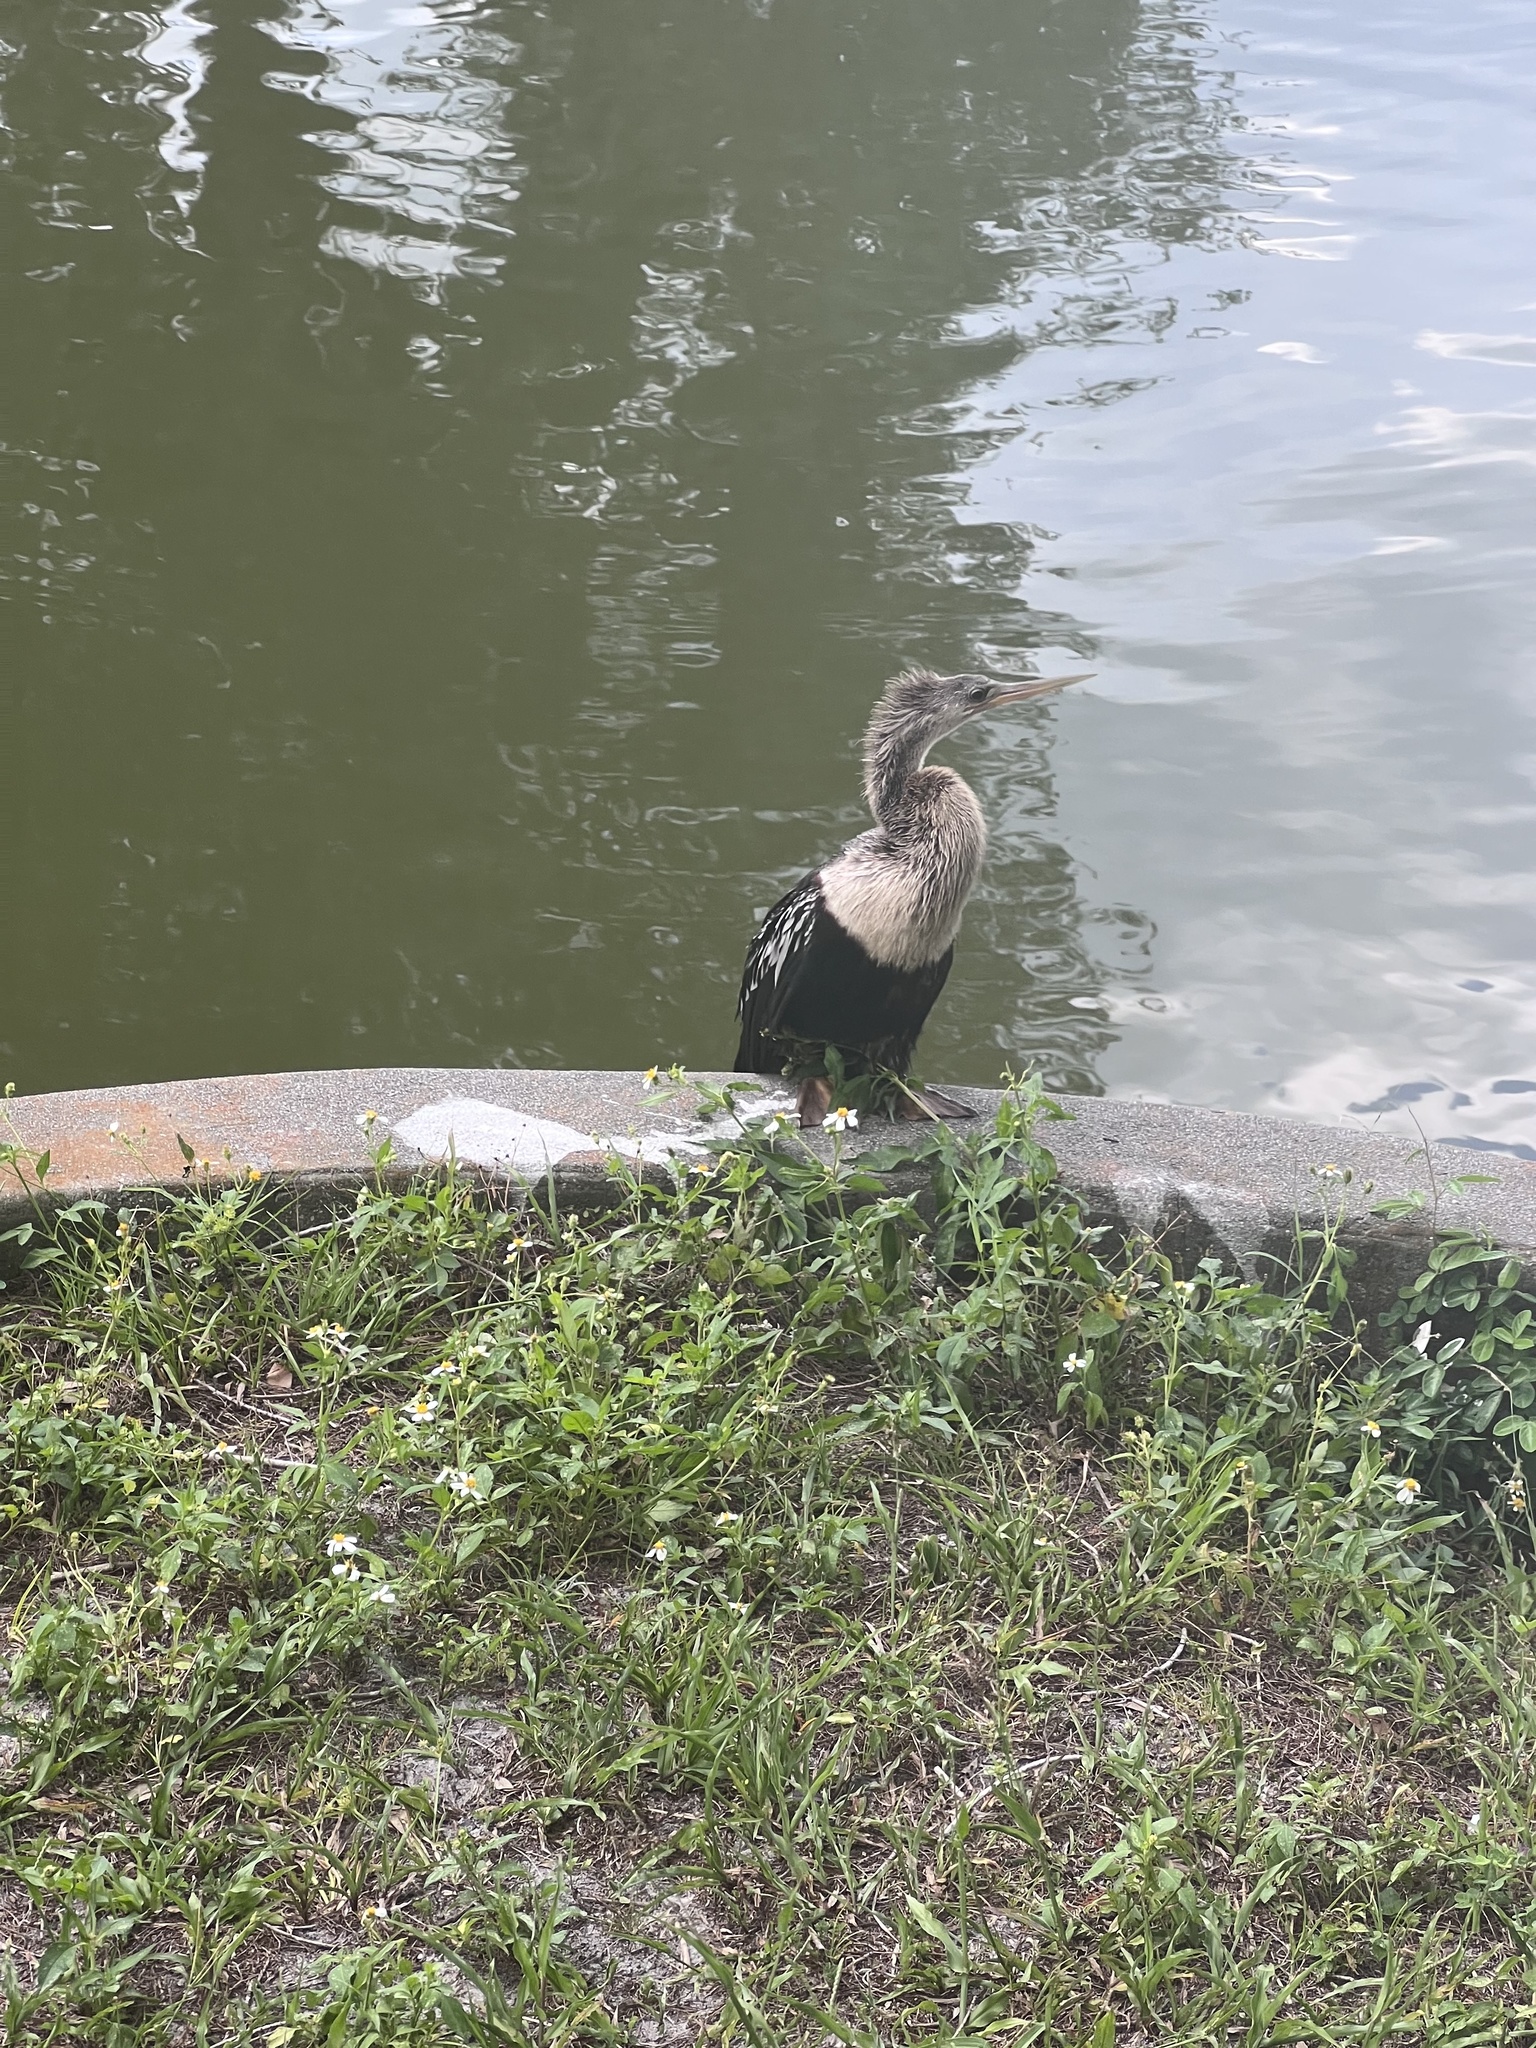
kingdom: Animalia
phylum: Chordata
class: Aves
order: Suliformes
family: Anhingidae
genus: Anhinga
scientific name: Anhinga anhinga
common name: Anhinga
